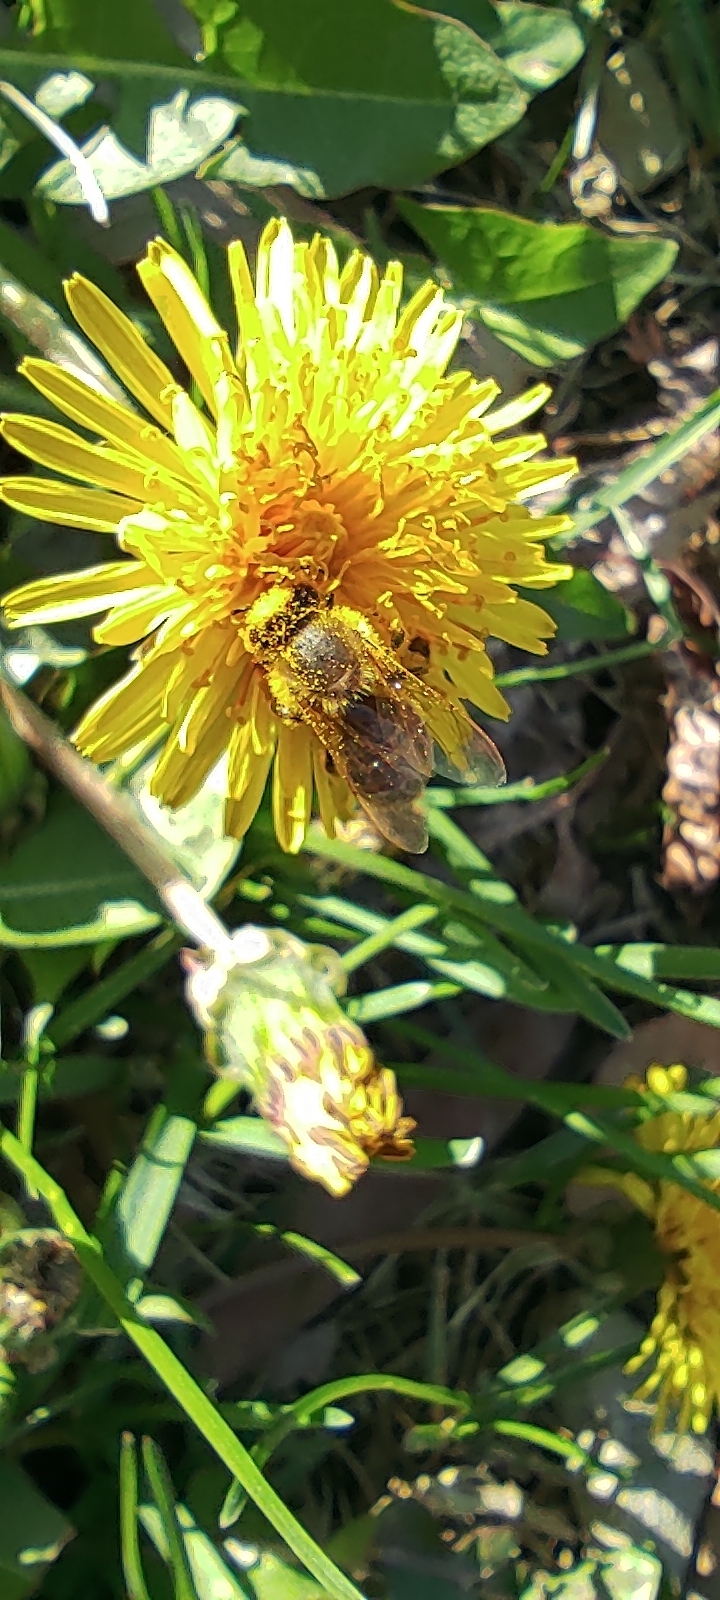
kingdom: Animalia
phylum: Arthropoda
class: Insecta
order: Hymenoptera
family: Apidae
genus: Apis
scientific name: Apis mellifera
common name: Honey bee
